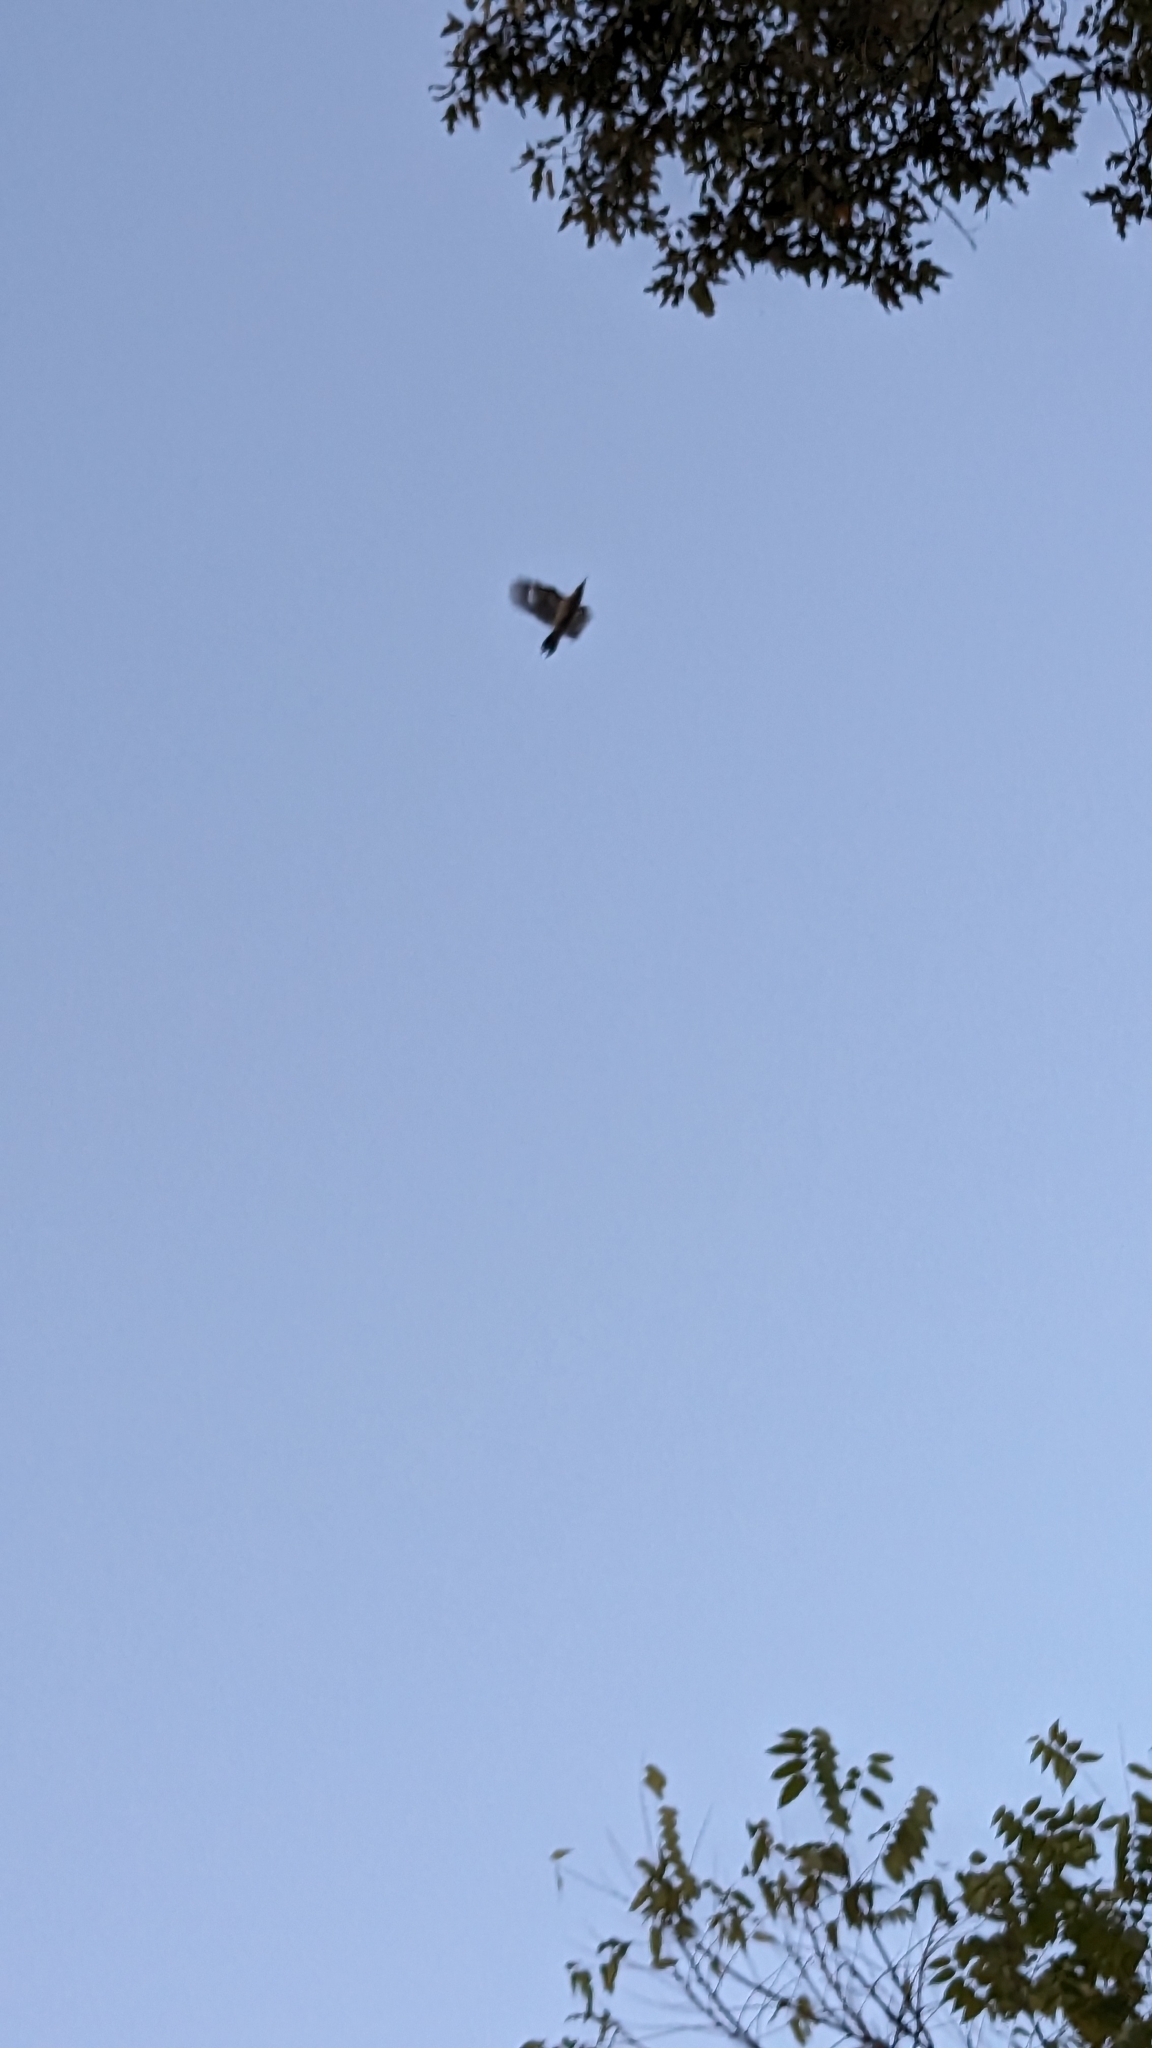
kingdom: Animalia
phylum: Chordata
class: Aves
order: Piciformes
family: Picidae
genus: Melanerpes
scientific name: Melanerpes carolinus
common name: Red-bellied woodpecker
